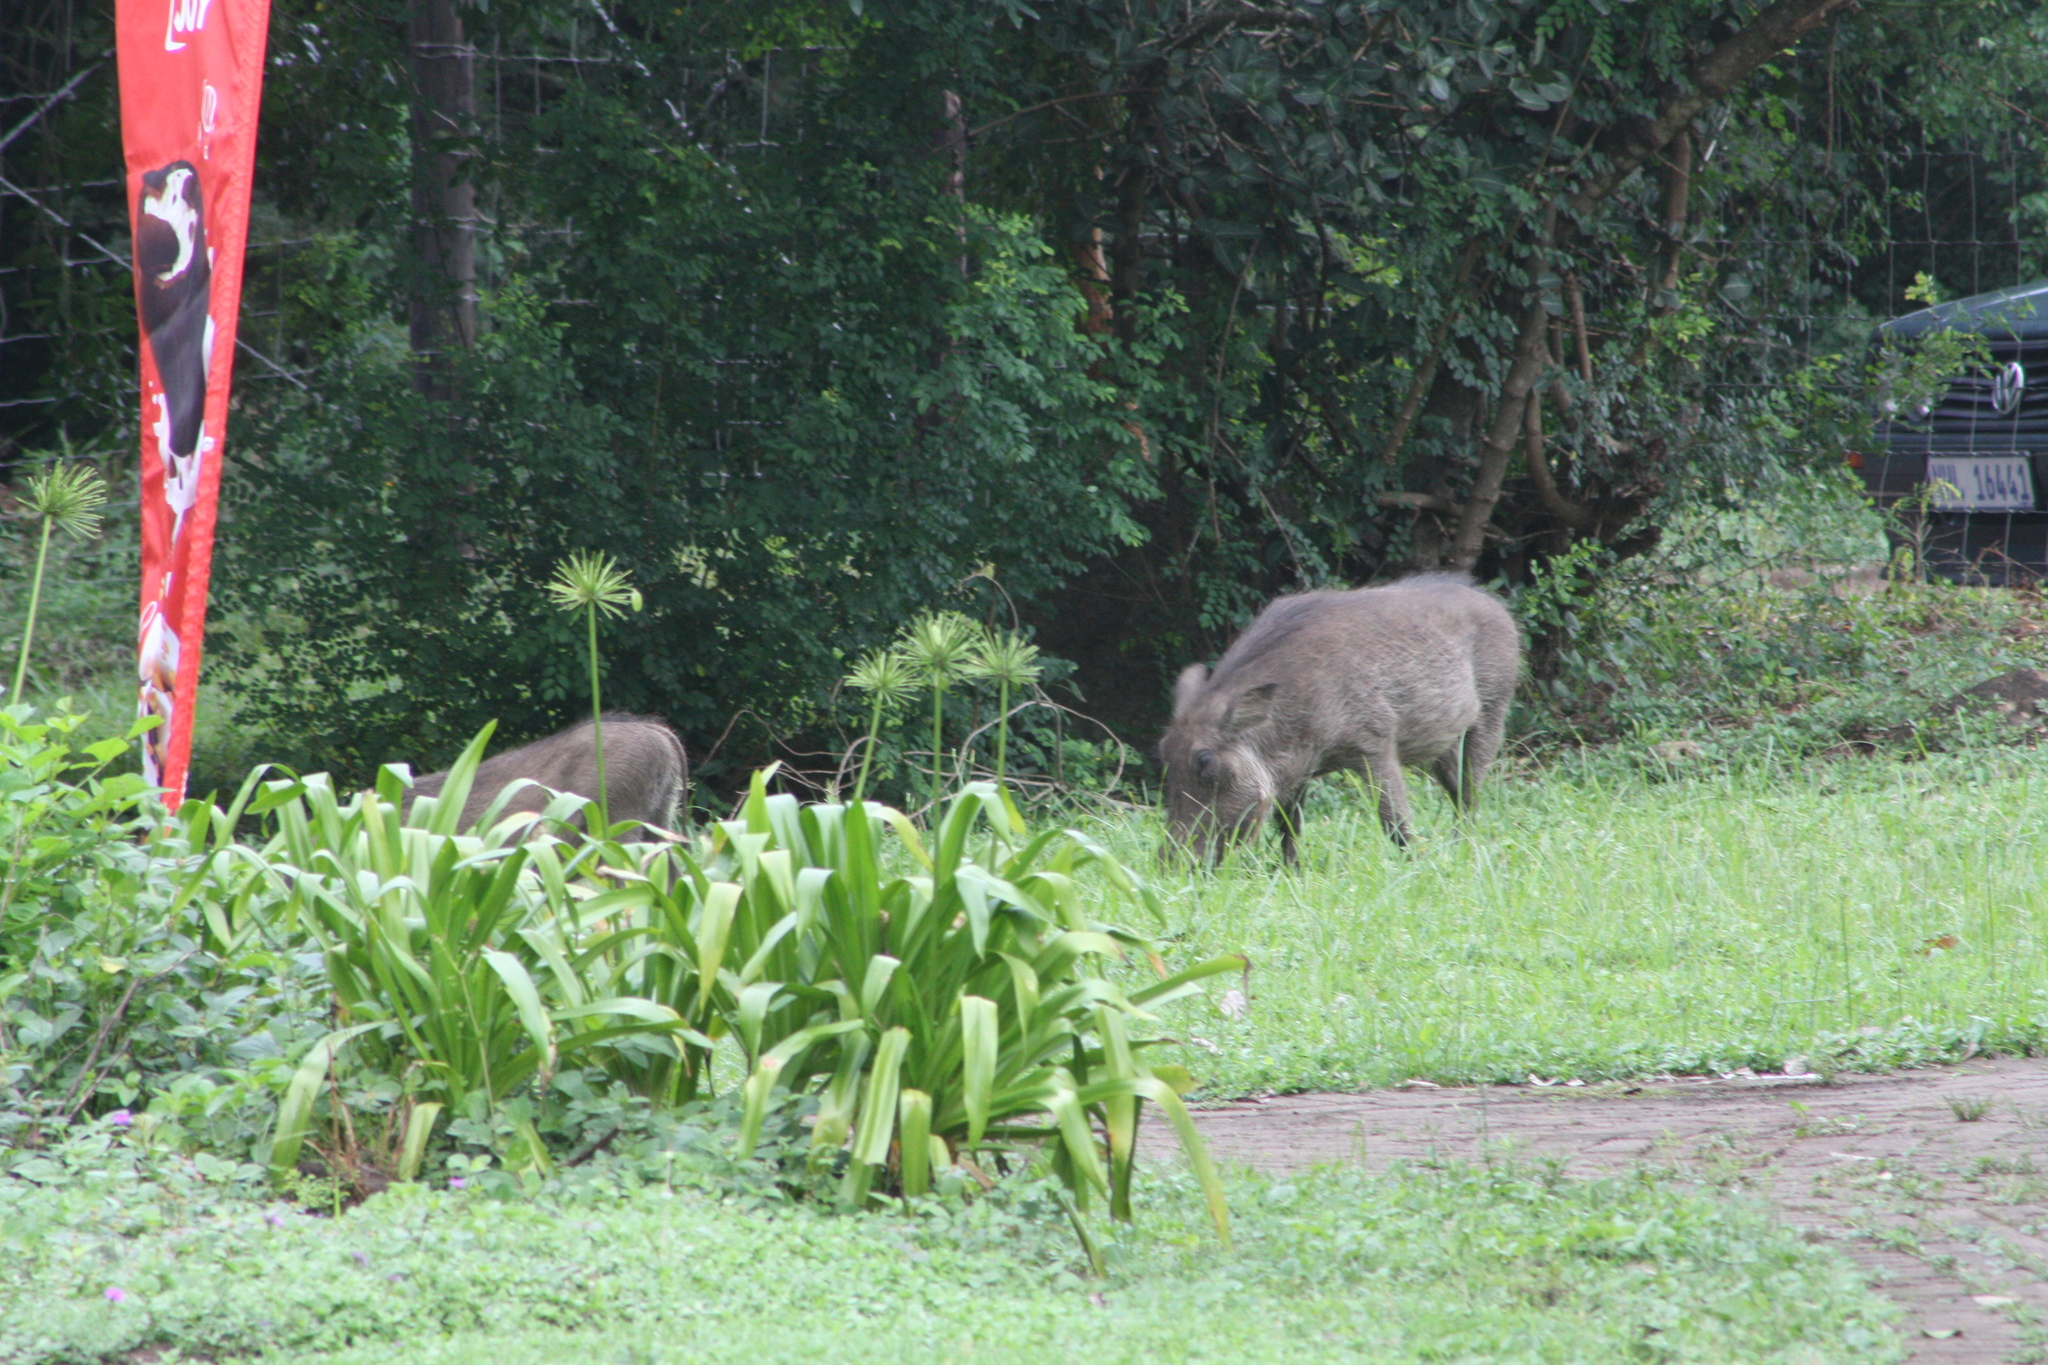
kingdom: Animalia
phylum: Chordata
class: Mammalia
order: Artiodactyla
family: Suidae
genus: Phacochoerus
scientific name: Phacochoerus africanus
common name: Common warthog
